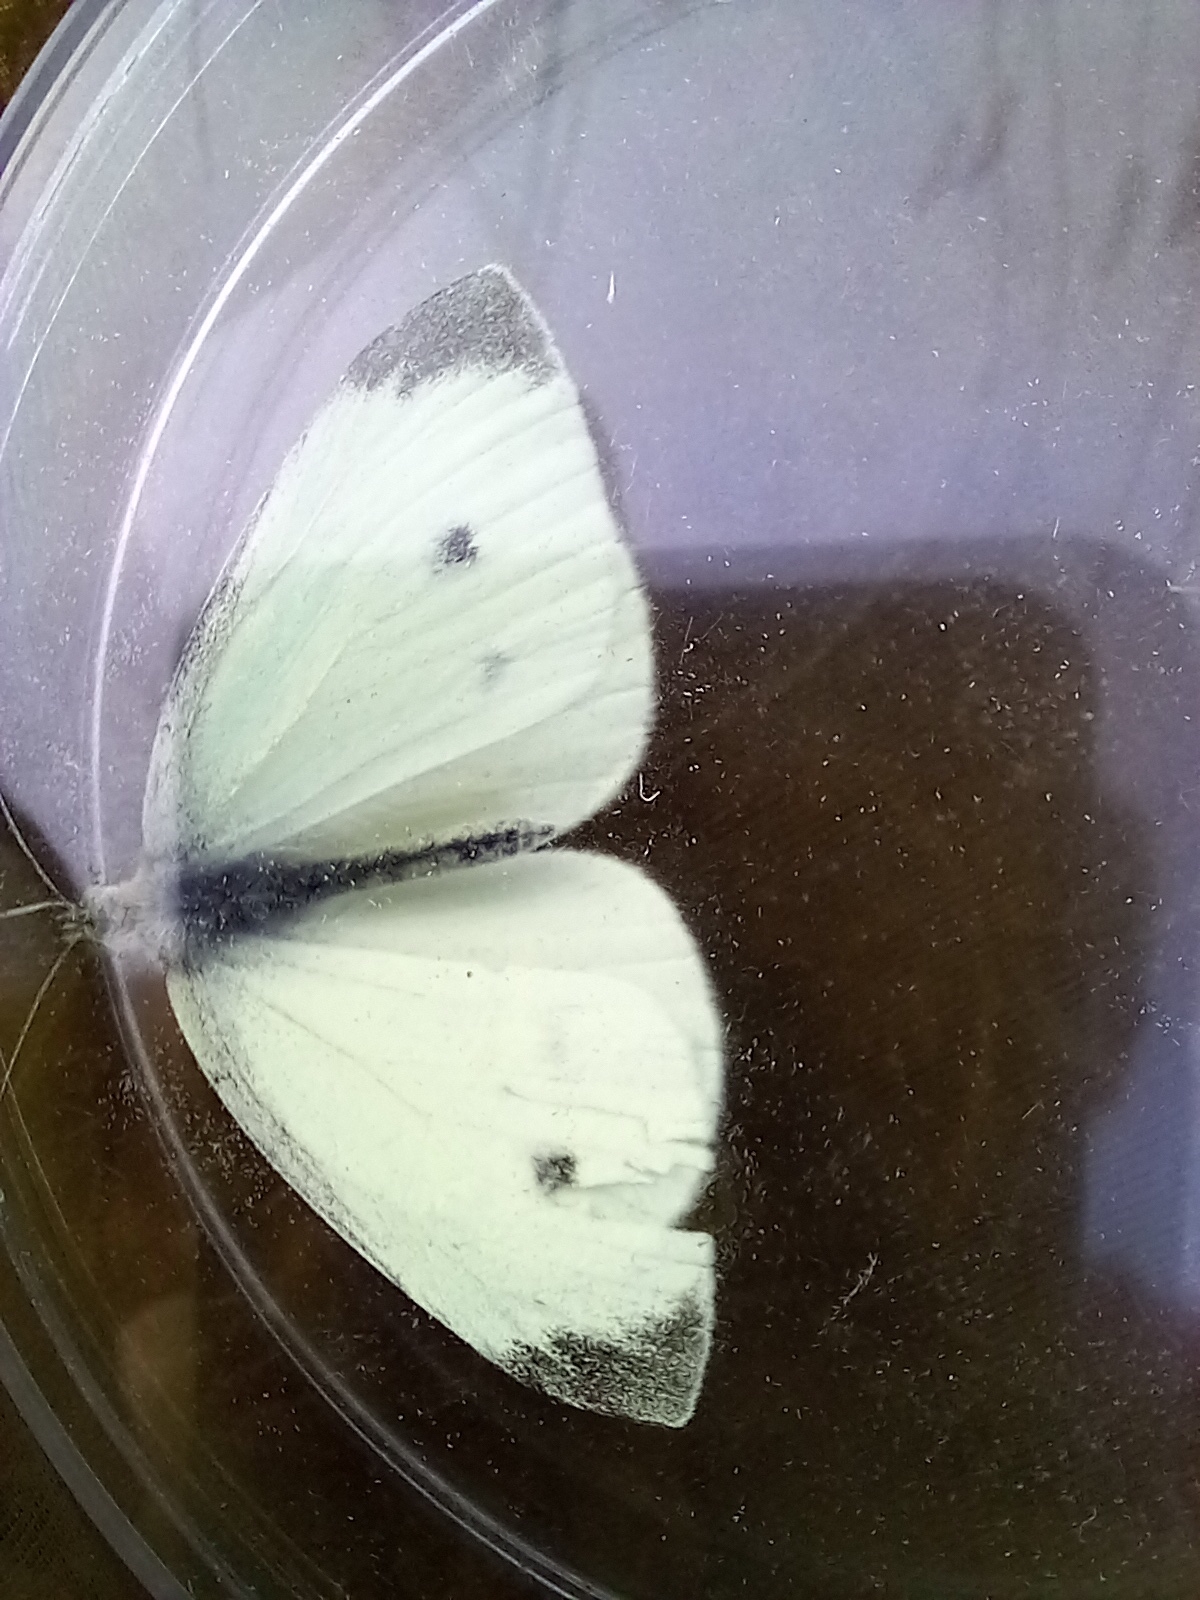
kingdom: Animalia
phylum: Arthropoda
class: Insecta
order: Lepidoptera
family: Pieridae
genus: Pieris
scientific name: Pieris rapae
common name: Small white
